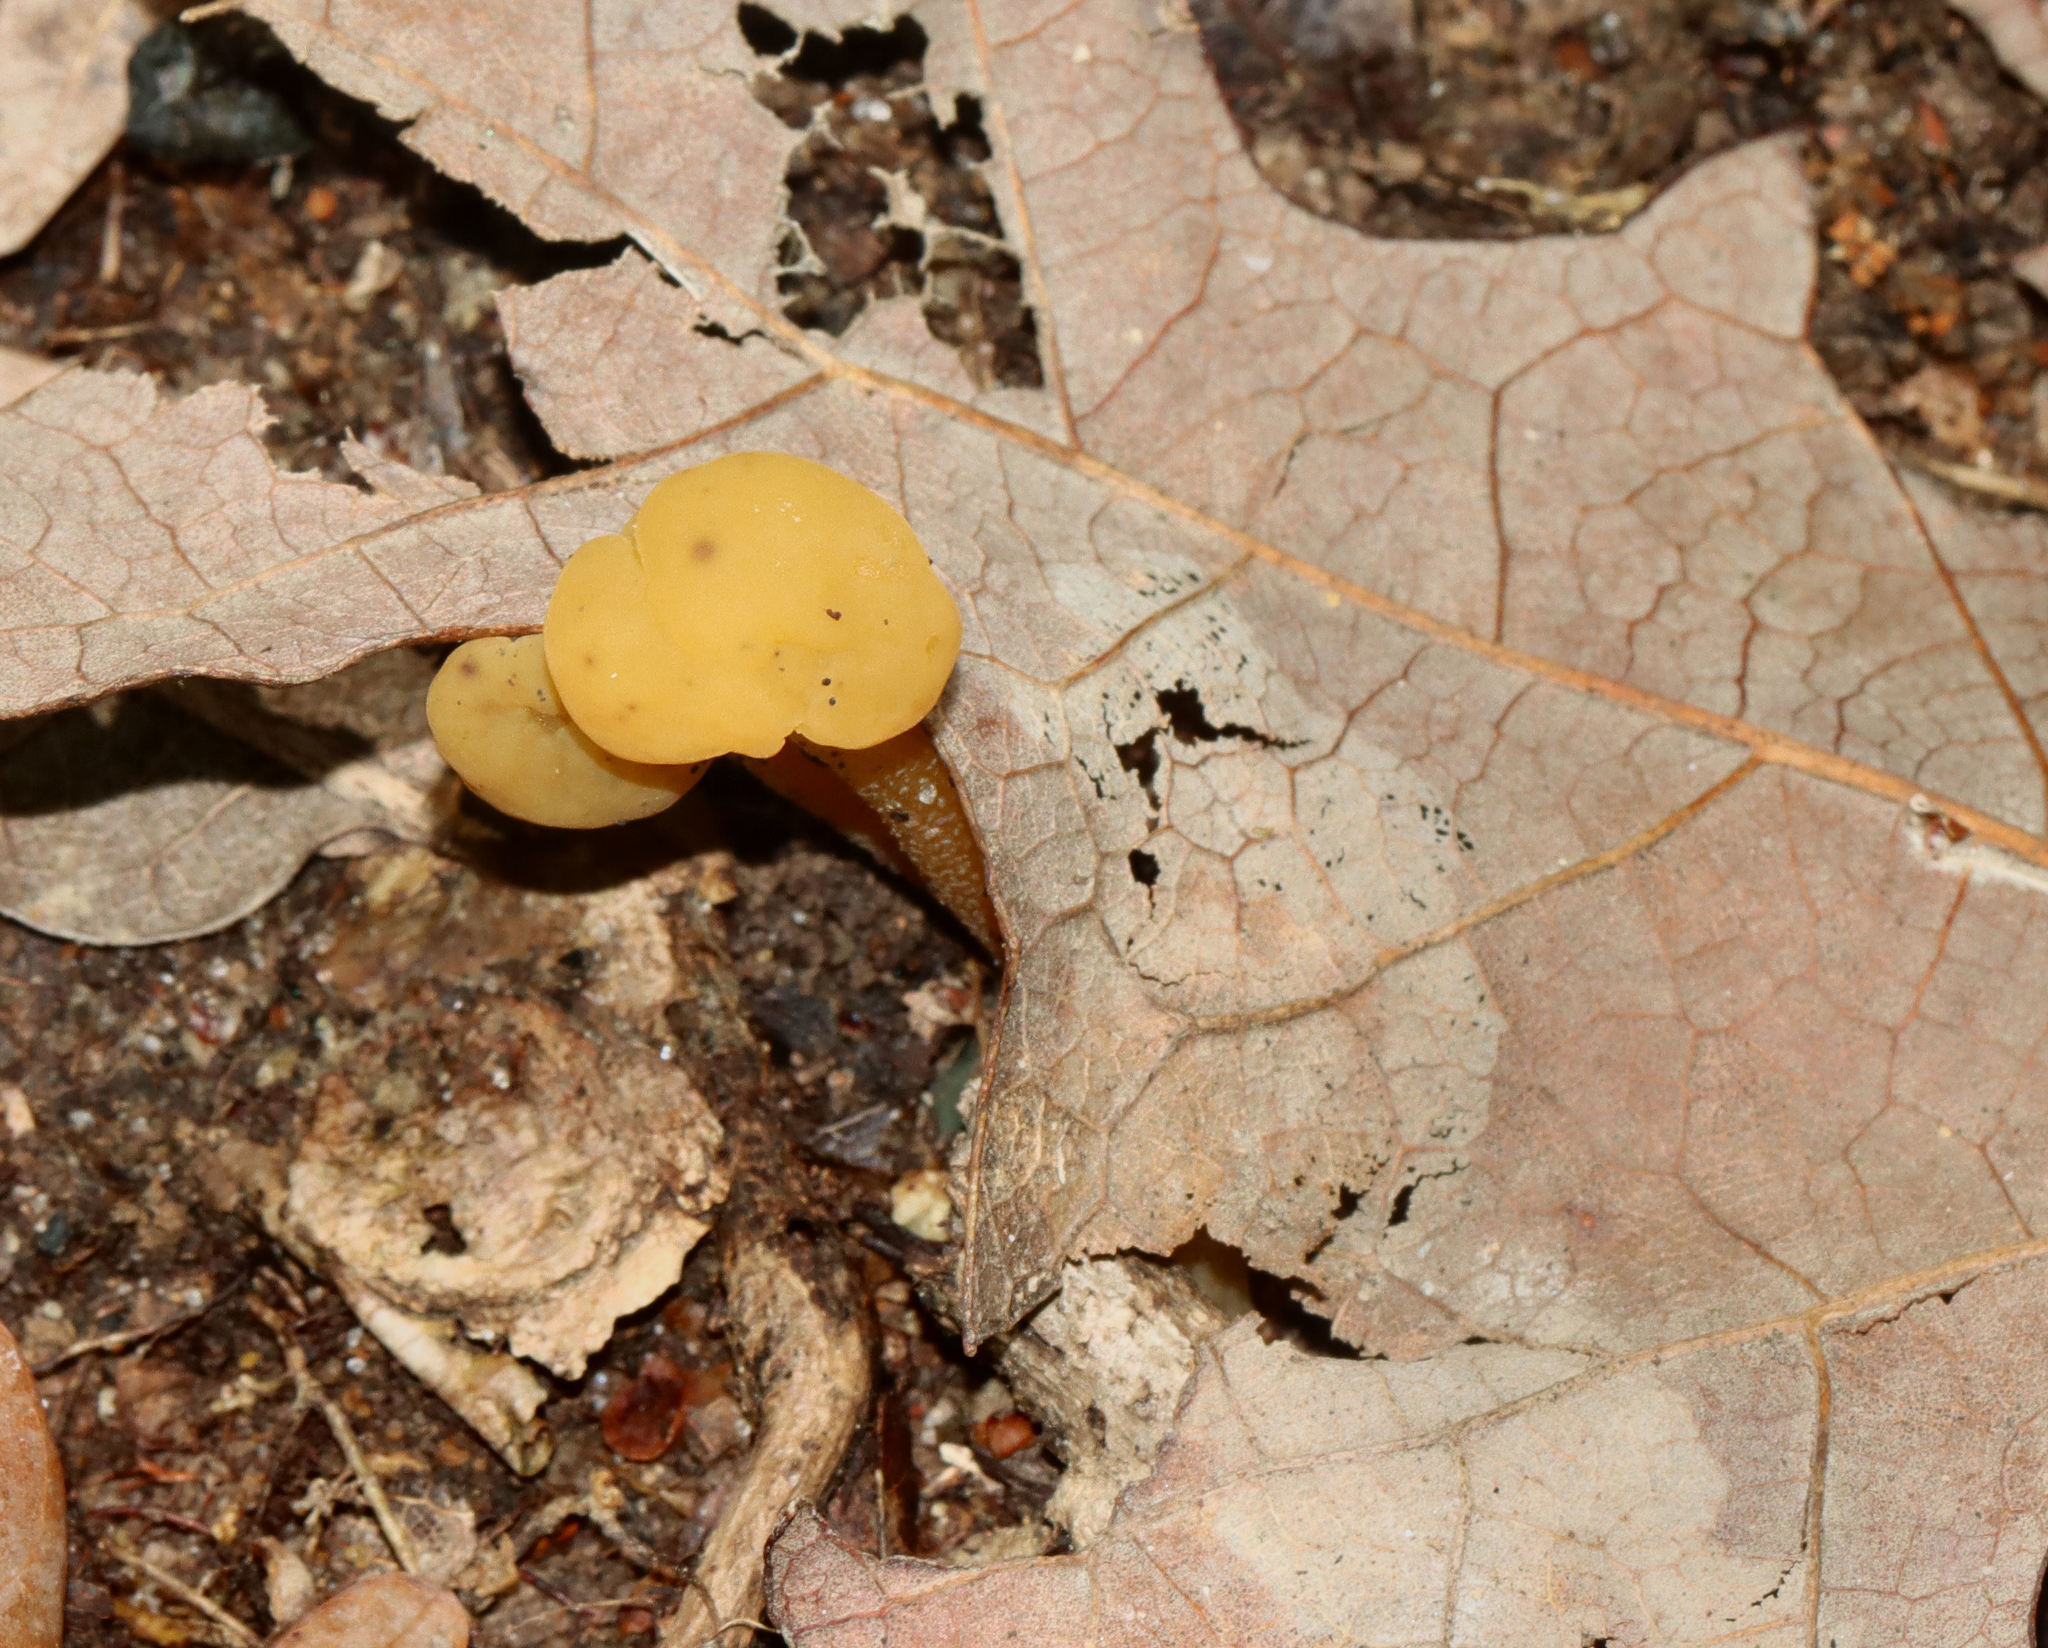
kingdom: Fungi
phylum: Ascomycota
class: Leotiomycetes
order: Leotiales
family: Leotiaceae
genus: Leotia
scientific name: Leotia lubrica
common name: Jellybaby
